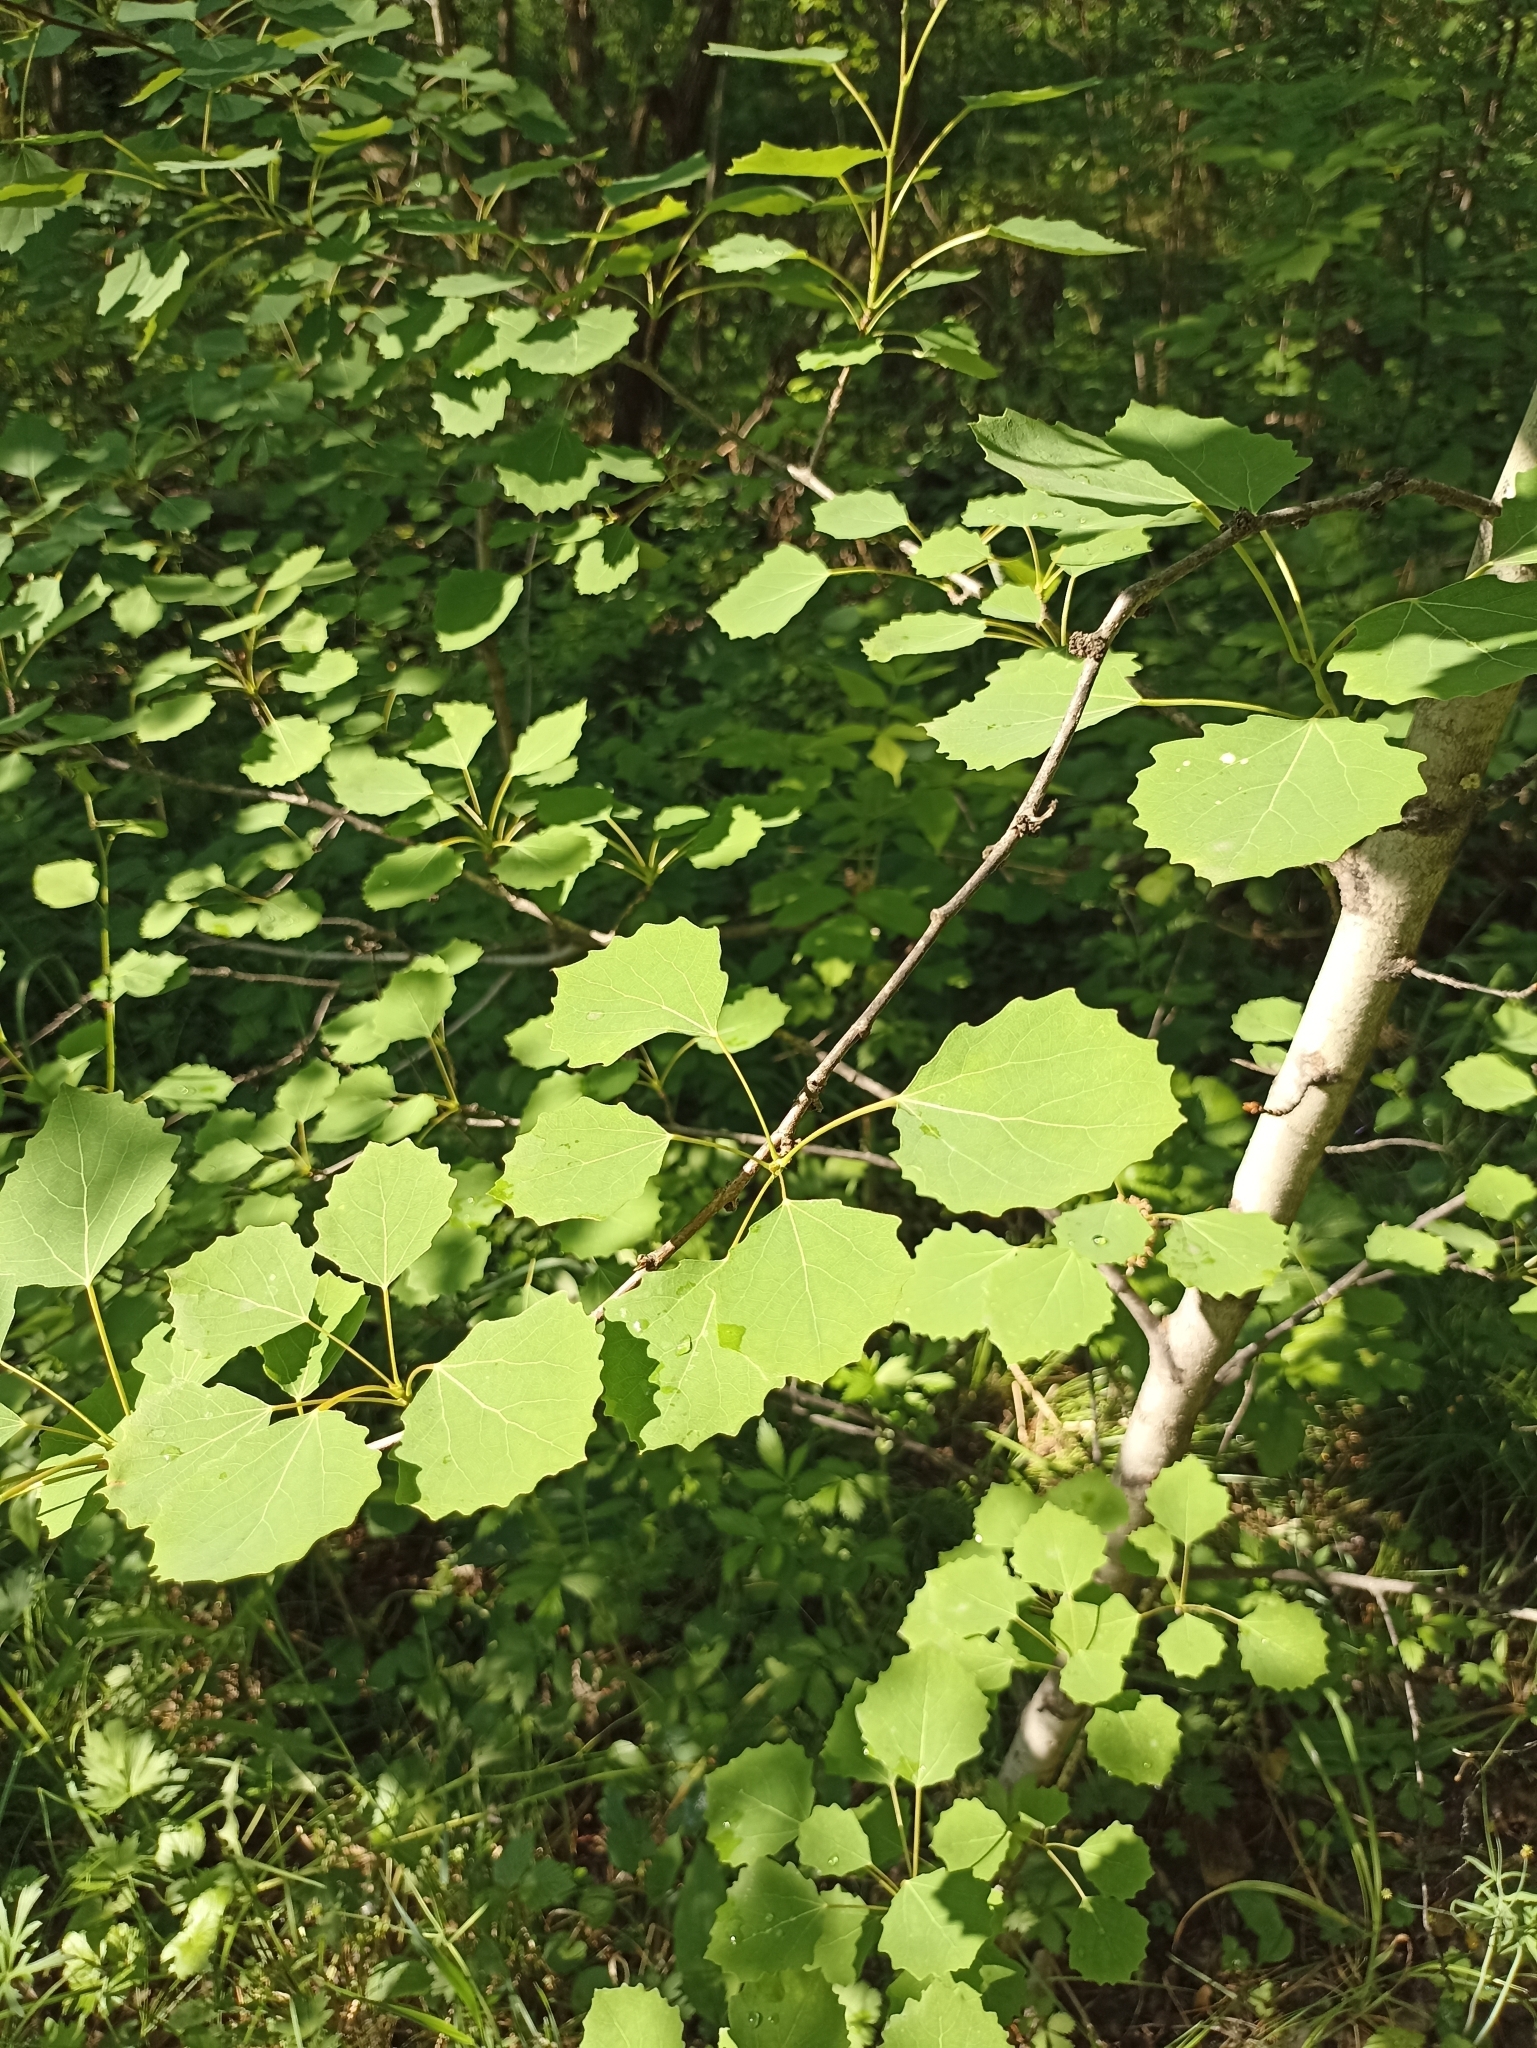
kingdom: Plantae
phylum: Tracheophyta
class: Magnoliopsida
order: Malpighiales
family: Salicaceae
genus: Populus
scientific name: Populus tremula
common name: European aspen
